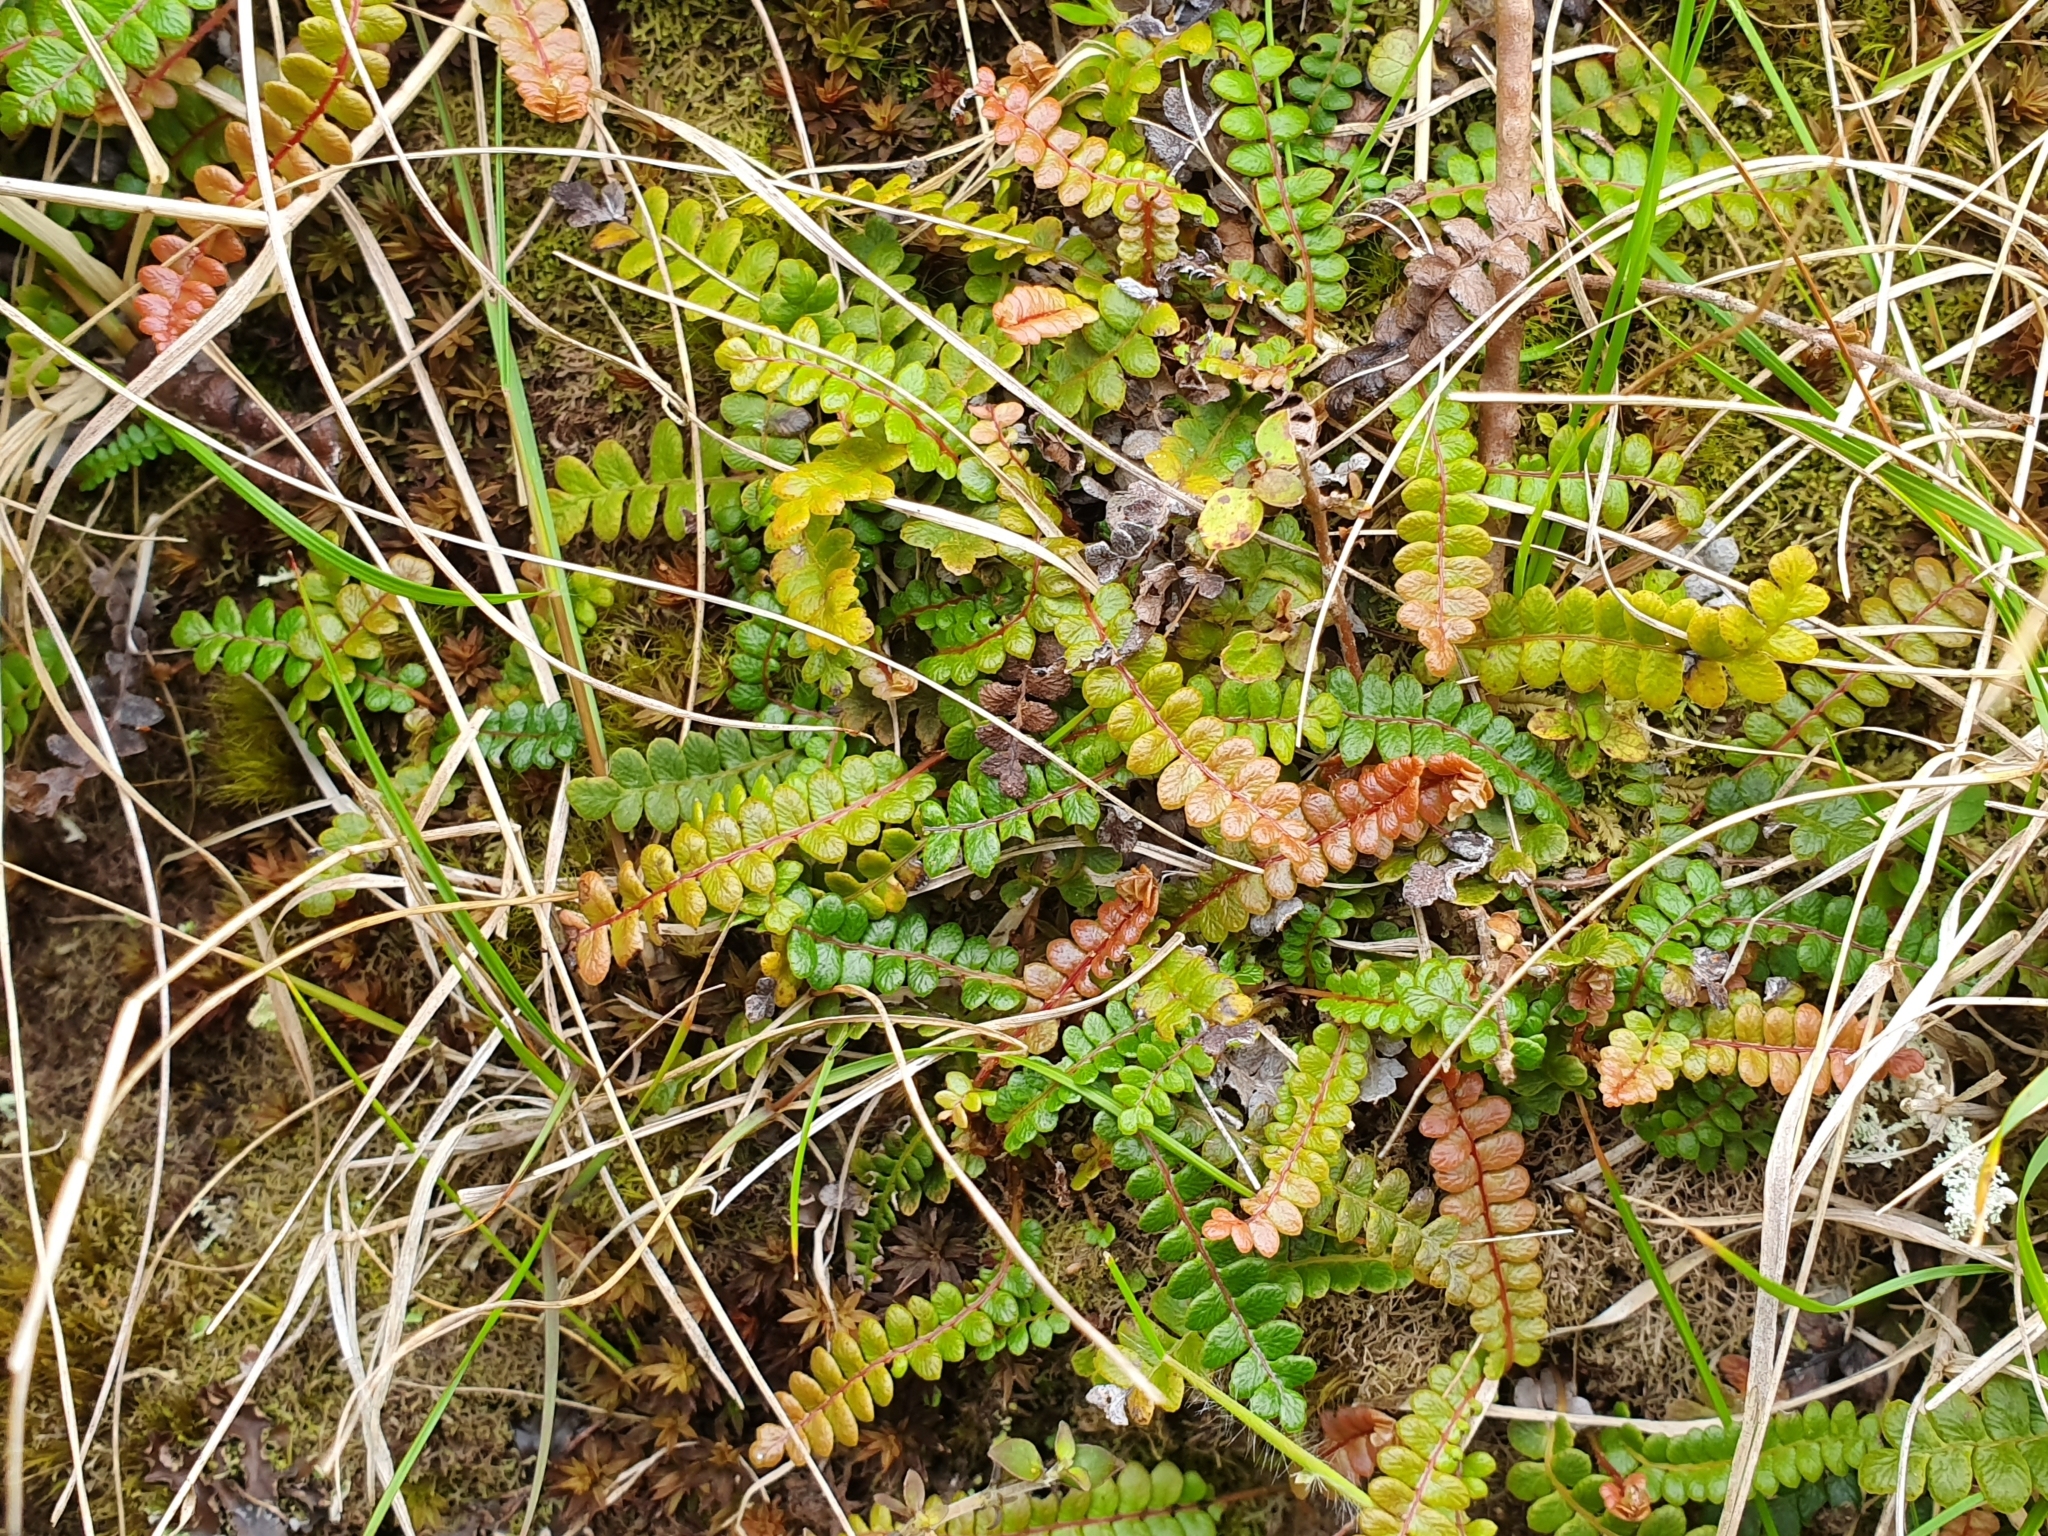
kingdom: Plantae
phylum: Tracheophyta
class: Polypodiopsida
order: Polypodiales
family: Blechnaceae
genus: Austroblechnum
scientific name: Austroblechnum penna-marina
